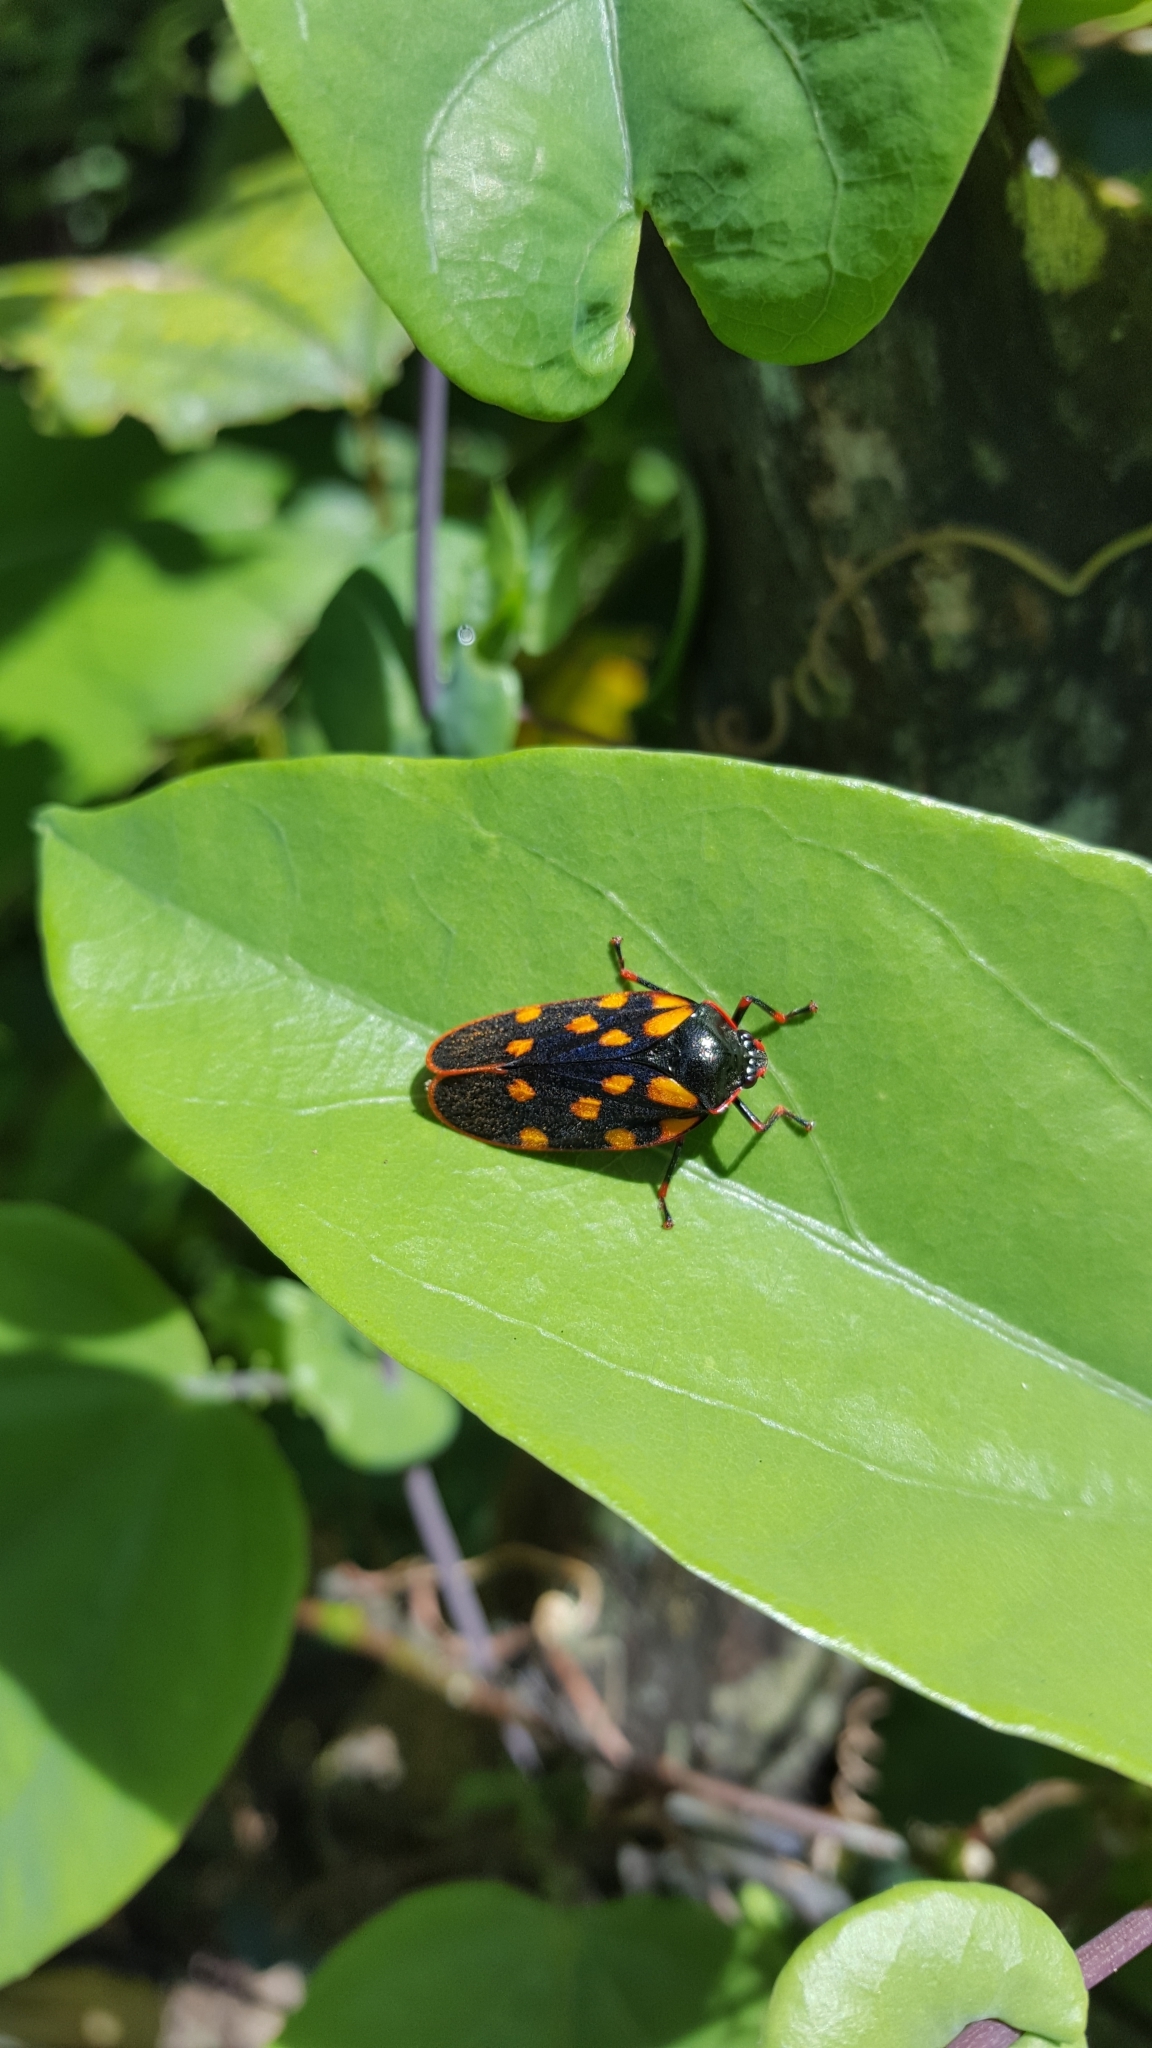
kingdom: Animalia
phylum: Arthropoda
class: Insecta
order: Hemiptera
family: Cercopidae
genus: Mahanarva
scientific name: Mahanarva costaricensis
